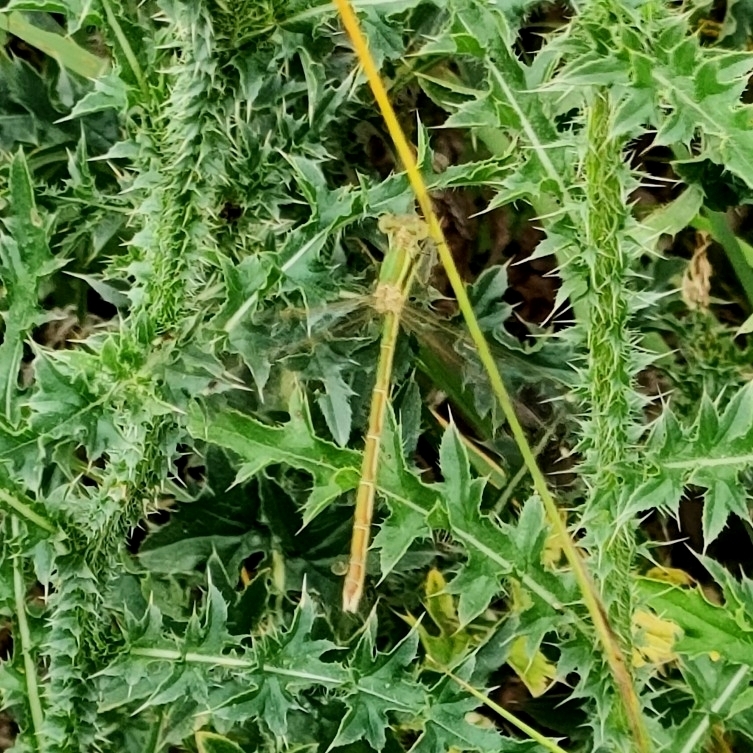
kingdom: Animalia
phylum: Arthropoda
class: Insecta
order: Odonata
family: Lestidae
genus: Lestes
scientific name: Lestes barbarus
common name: Migrant spreadwing
